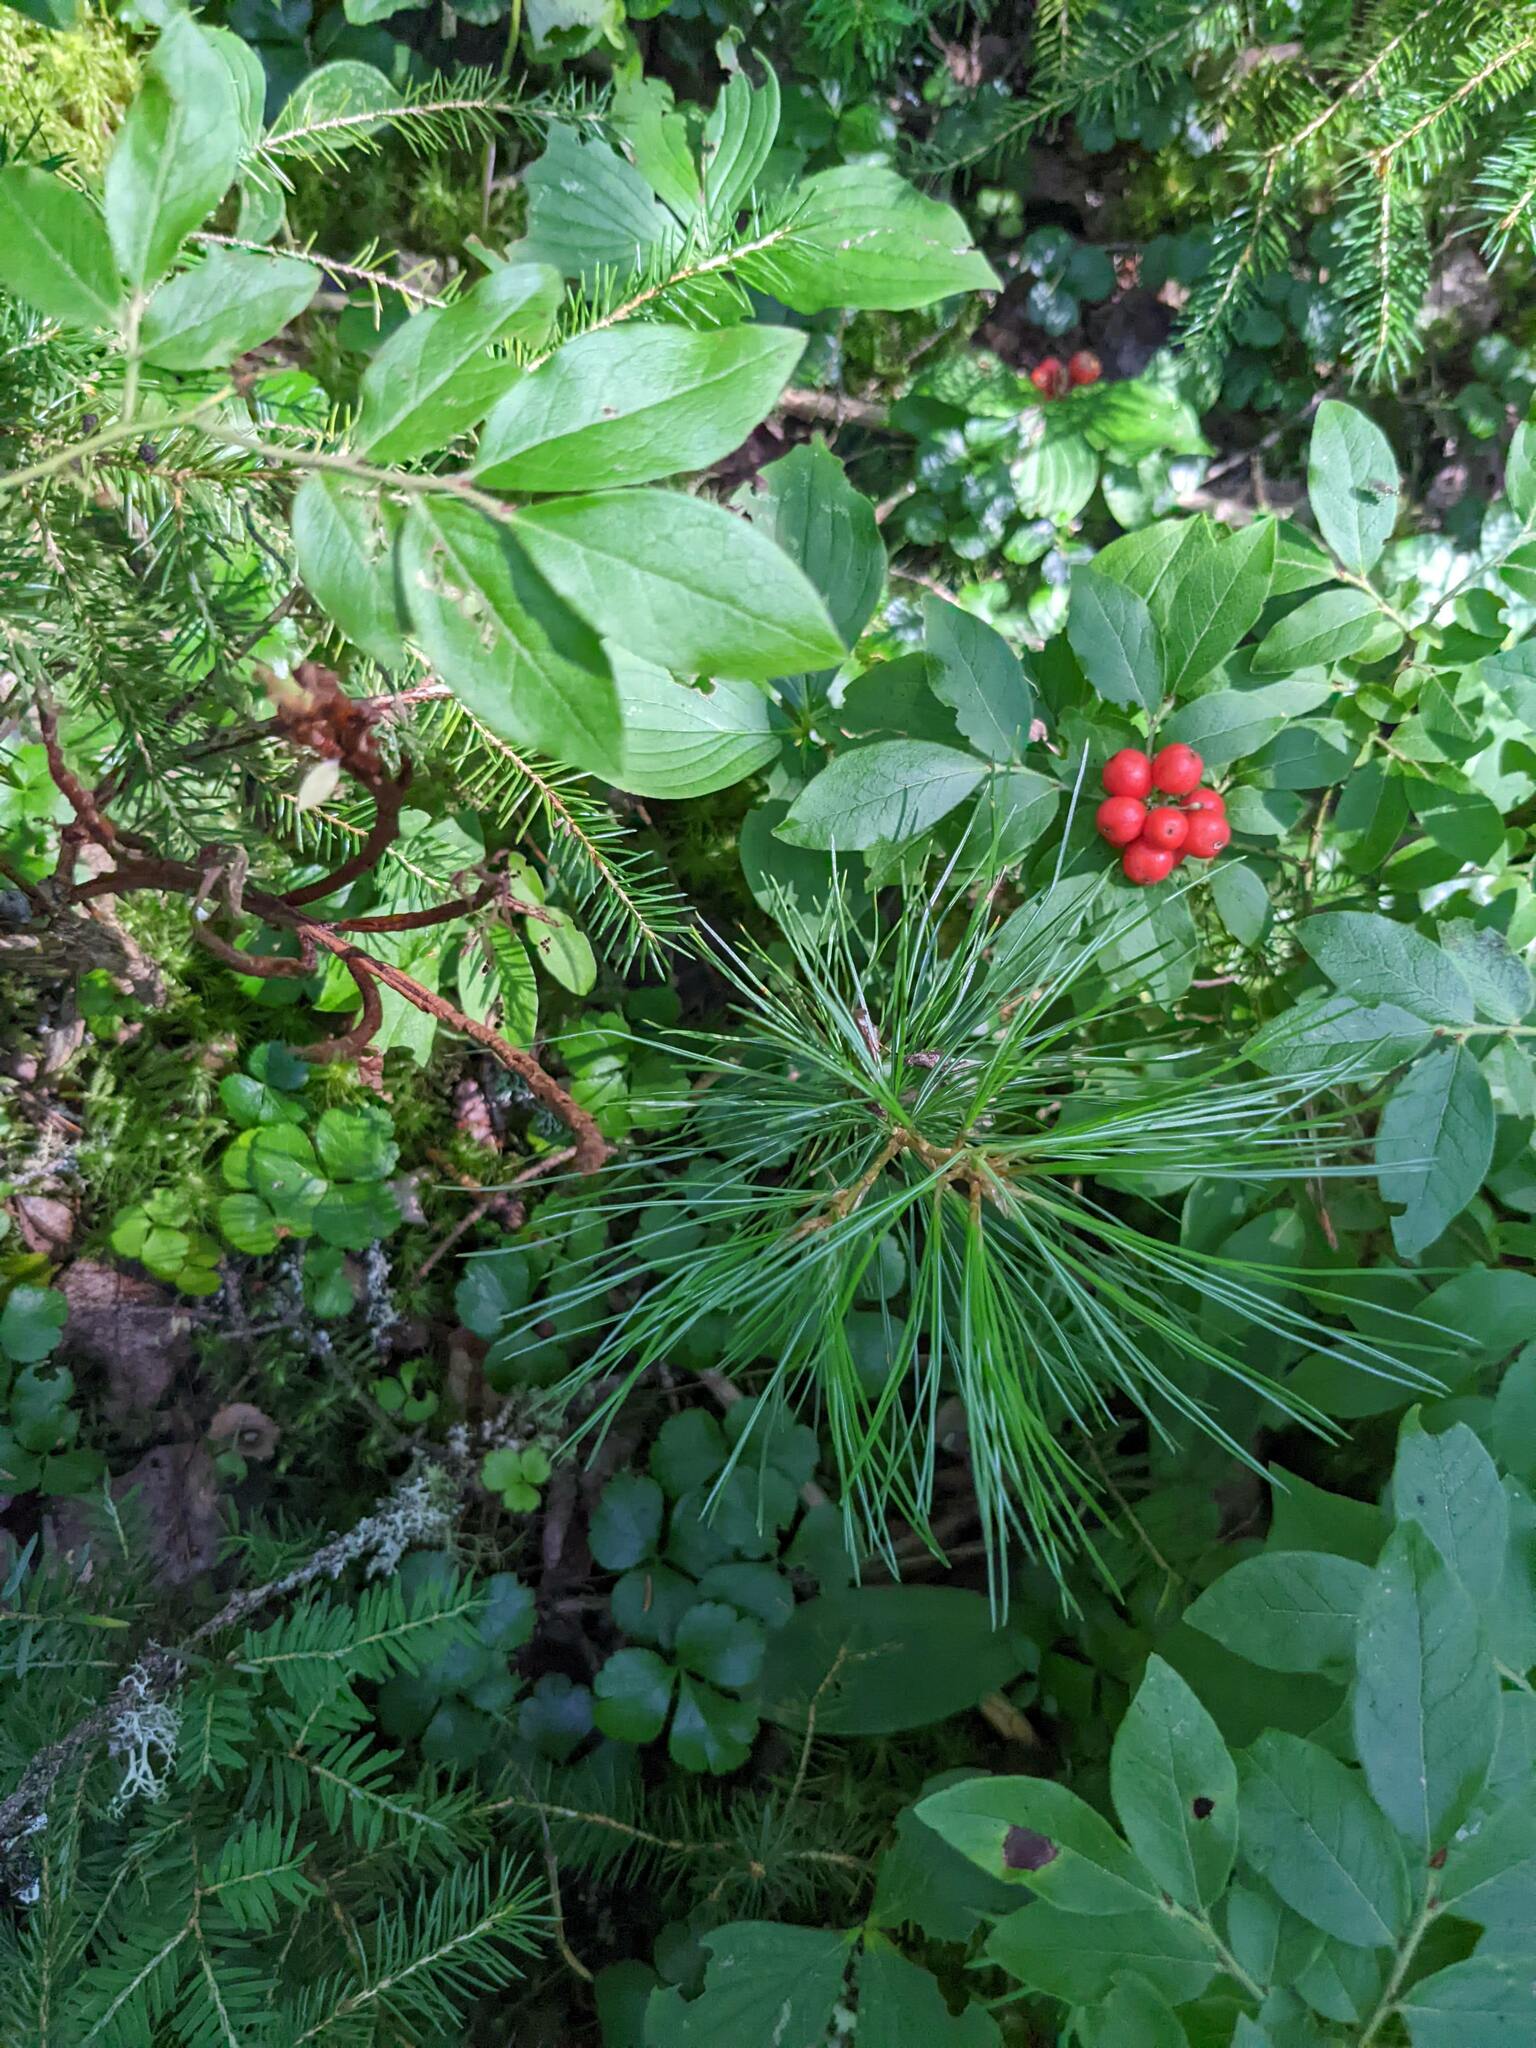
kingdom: Plantae
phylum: Tracheophyta
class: Pinopsida
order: Pinales
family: Pinaceae
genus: Pinus
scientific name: Pinus strobus
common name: Weymouth pine
